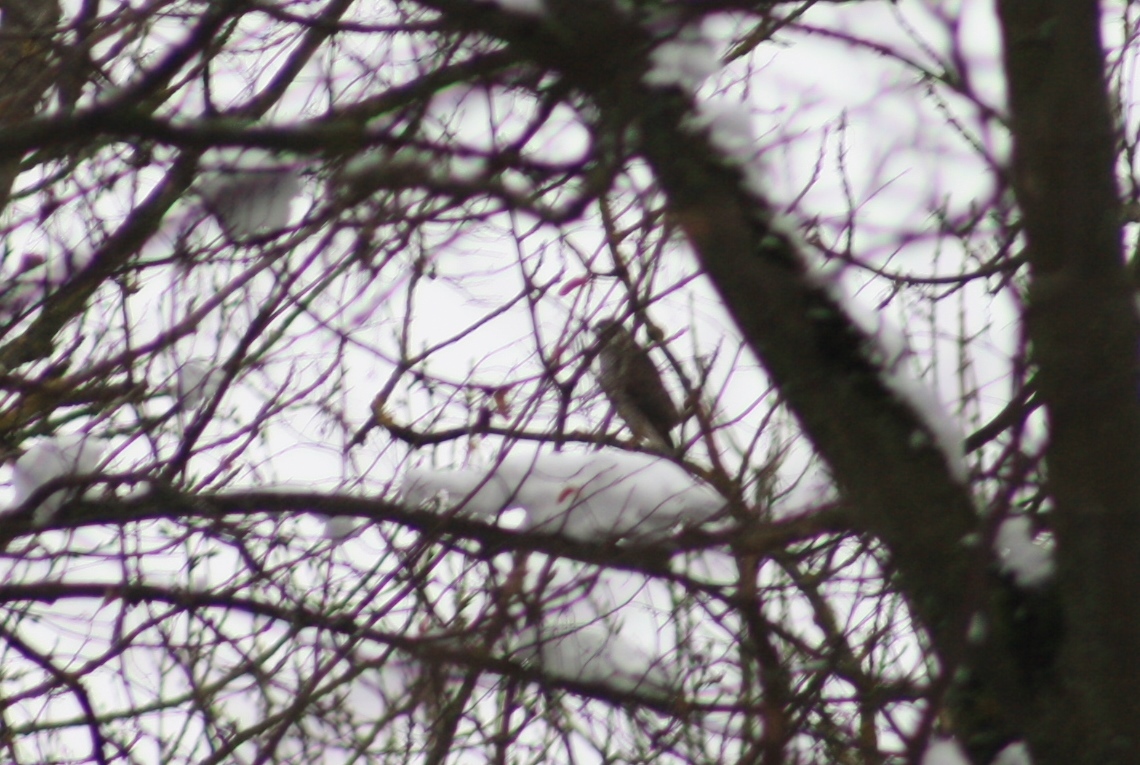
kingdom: Animalia
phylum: Chordata
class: Aves
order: Accipitriformes
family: Accipitridae
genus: Accipiter
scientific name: Accipiter nisus
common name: Eurasian sparrowhawk
